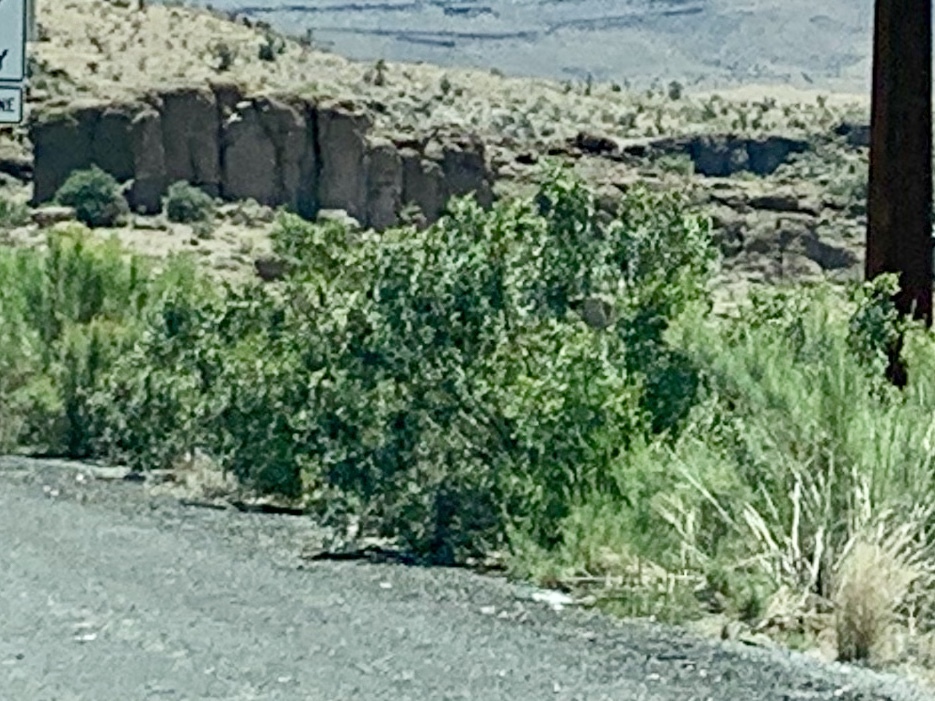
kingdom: Plantae
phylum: Tracheophyta
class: Magnoliopsida
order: Zygophyllales
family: Zygophyllaceae
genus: Larrea
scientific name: Larrea tridentata
